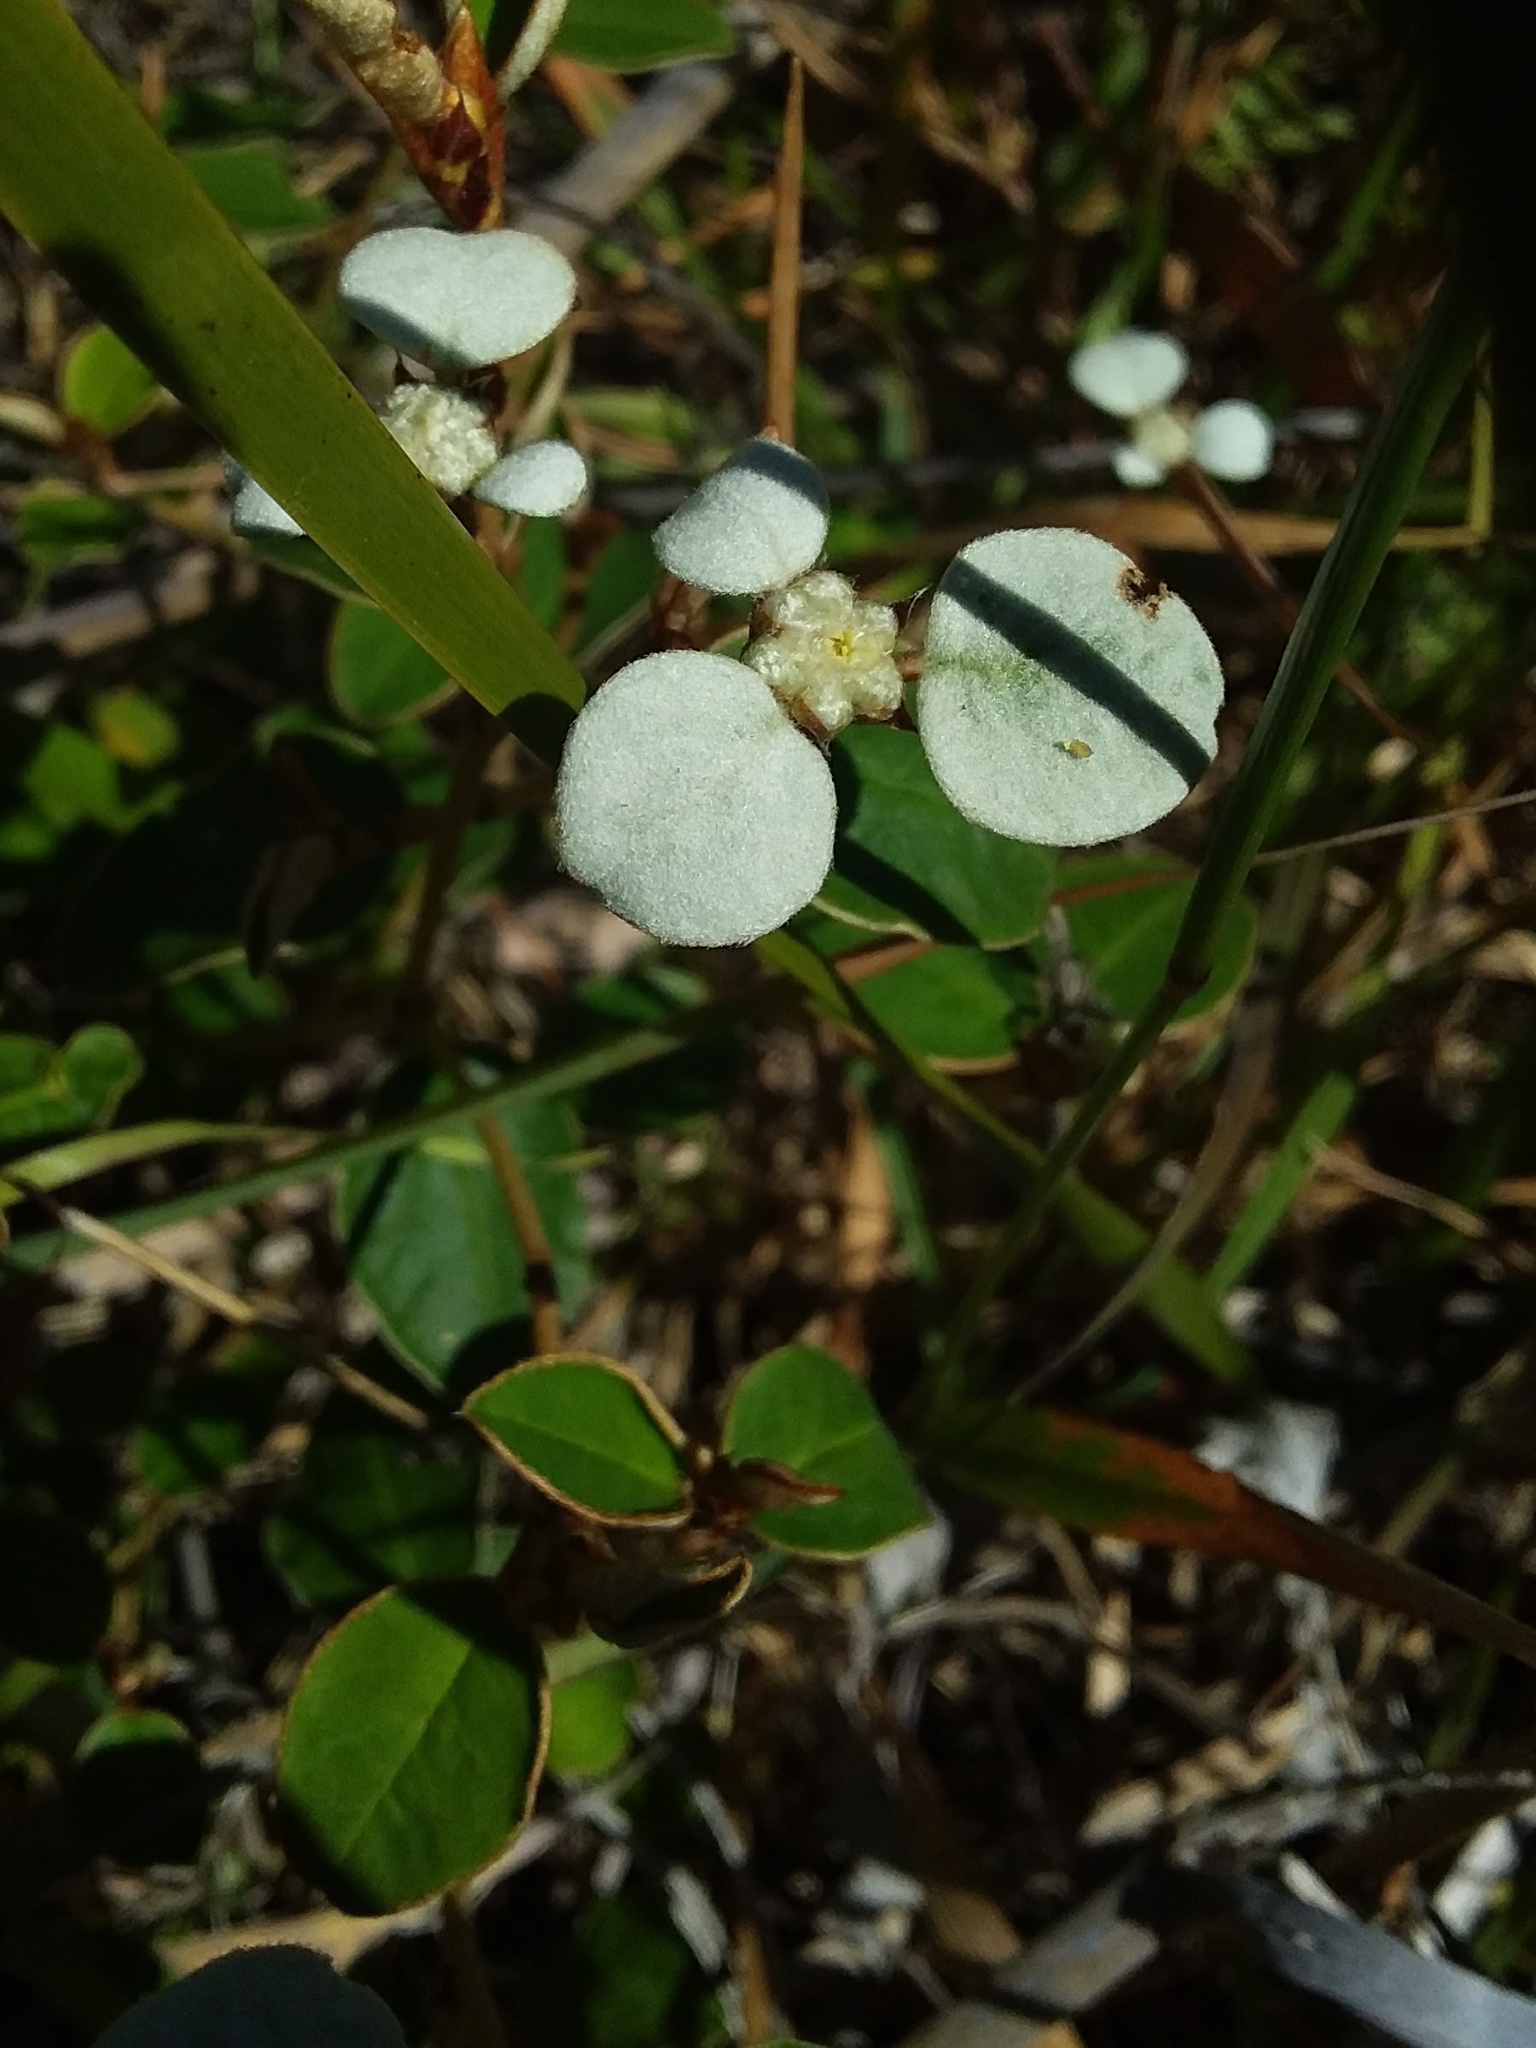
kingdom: Plantae
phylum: Tracheophyta
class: Magnoliopsida
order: Rosales
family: Rhamnaceae
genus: Spyridium
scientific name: Spyridium thymifolium
